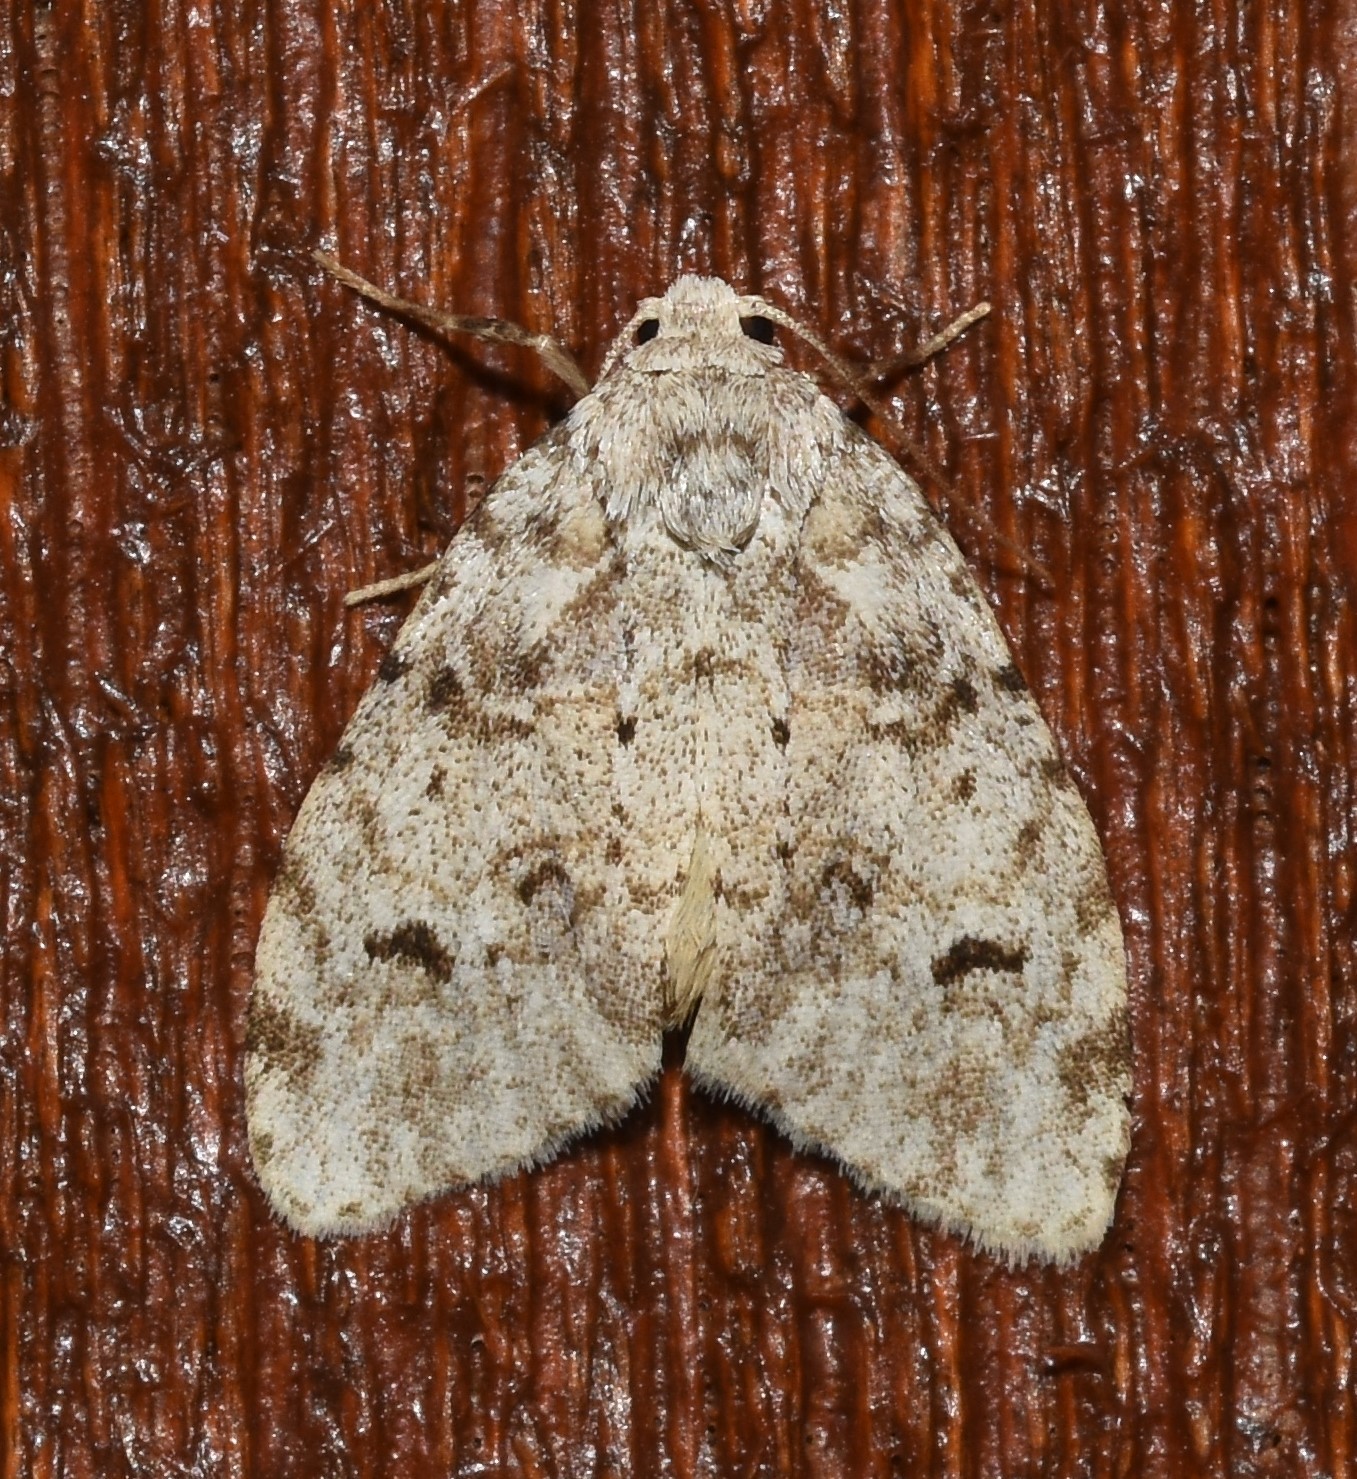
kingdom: Animalia
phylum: Arthropoda
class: Insecta
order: Lepidoptera
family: Erebidae
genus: Clemensia
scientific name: Clemensia albata
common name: Little white lichen moth
